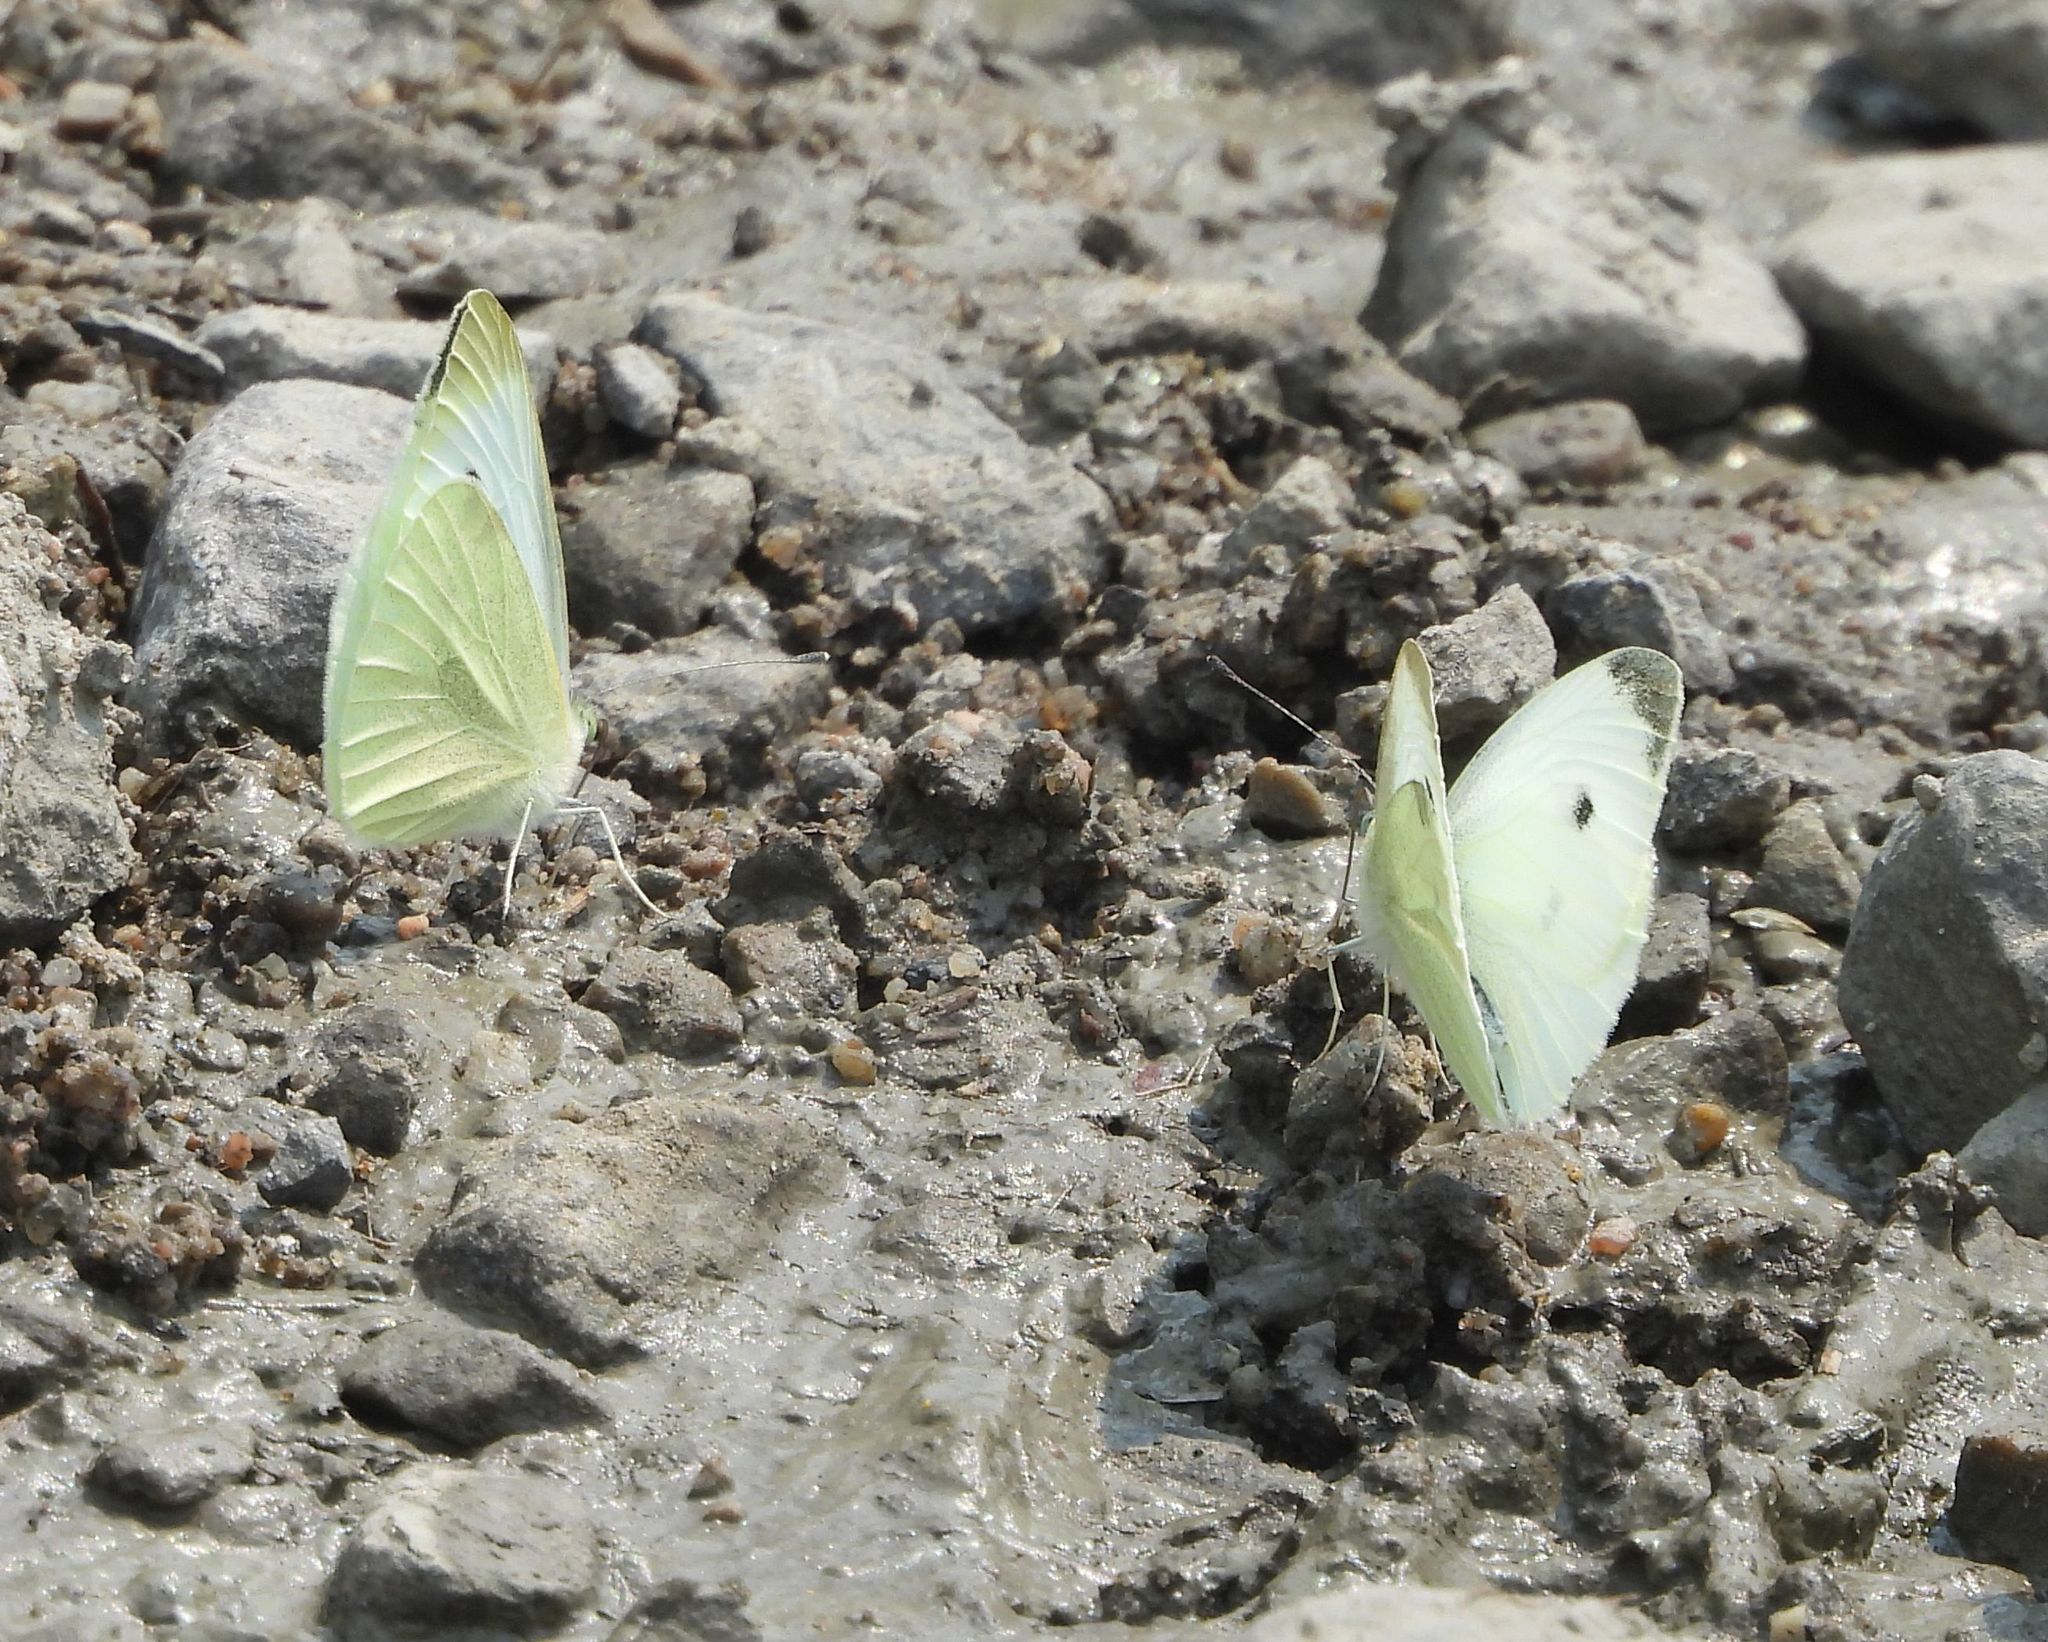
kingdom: Animalia
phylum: Arthropoda
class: Insecta
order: Lepidoptera
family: Pieridae
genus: Pieris
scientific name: Pieris rapae
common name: Small white
